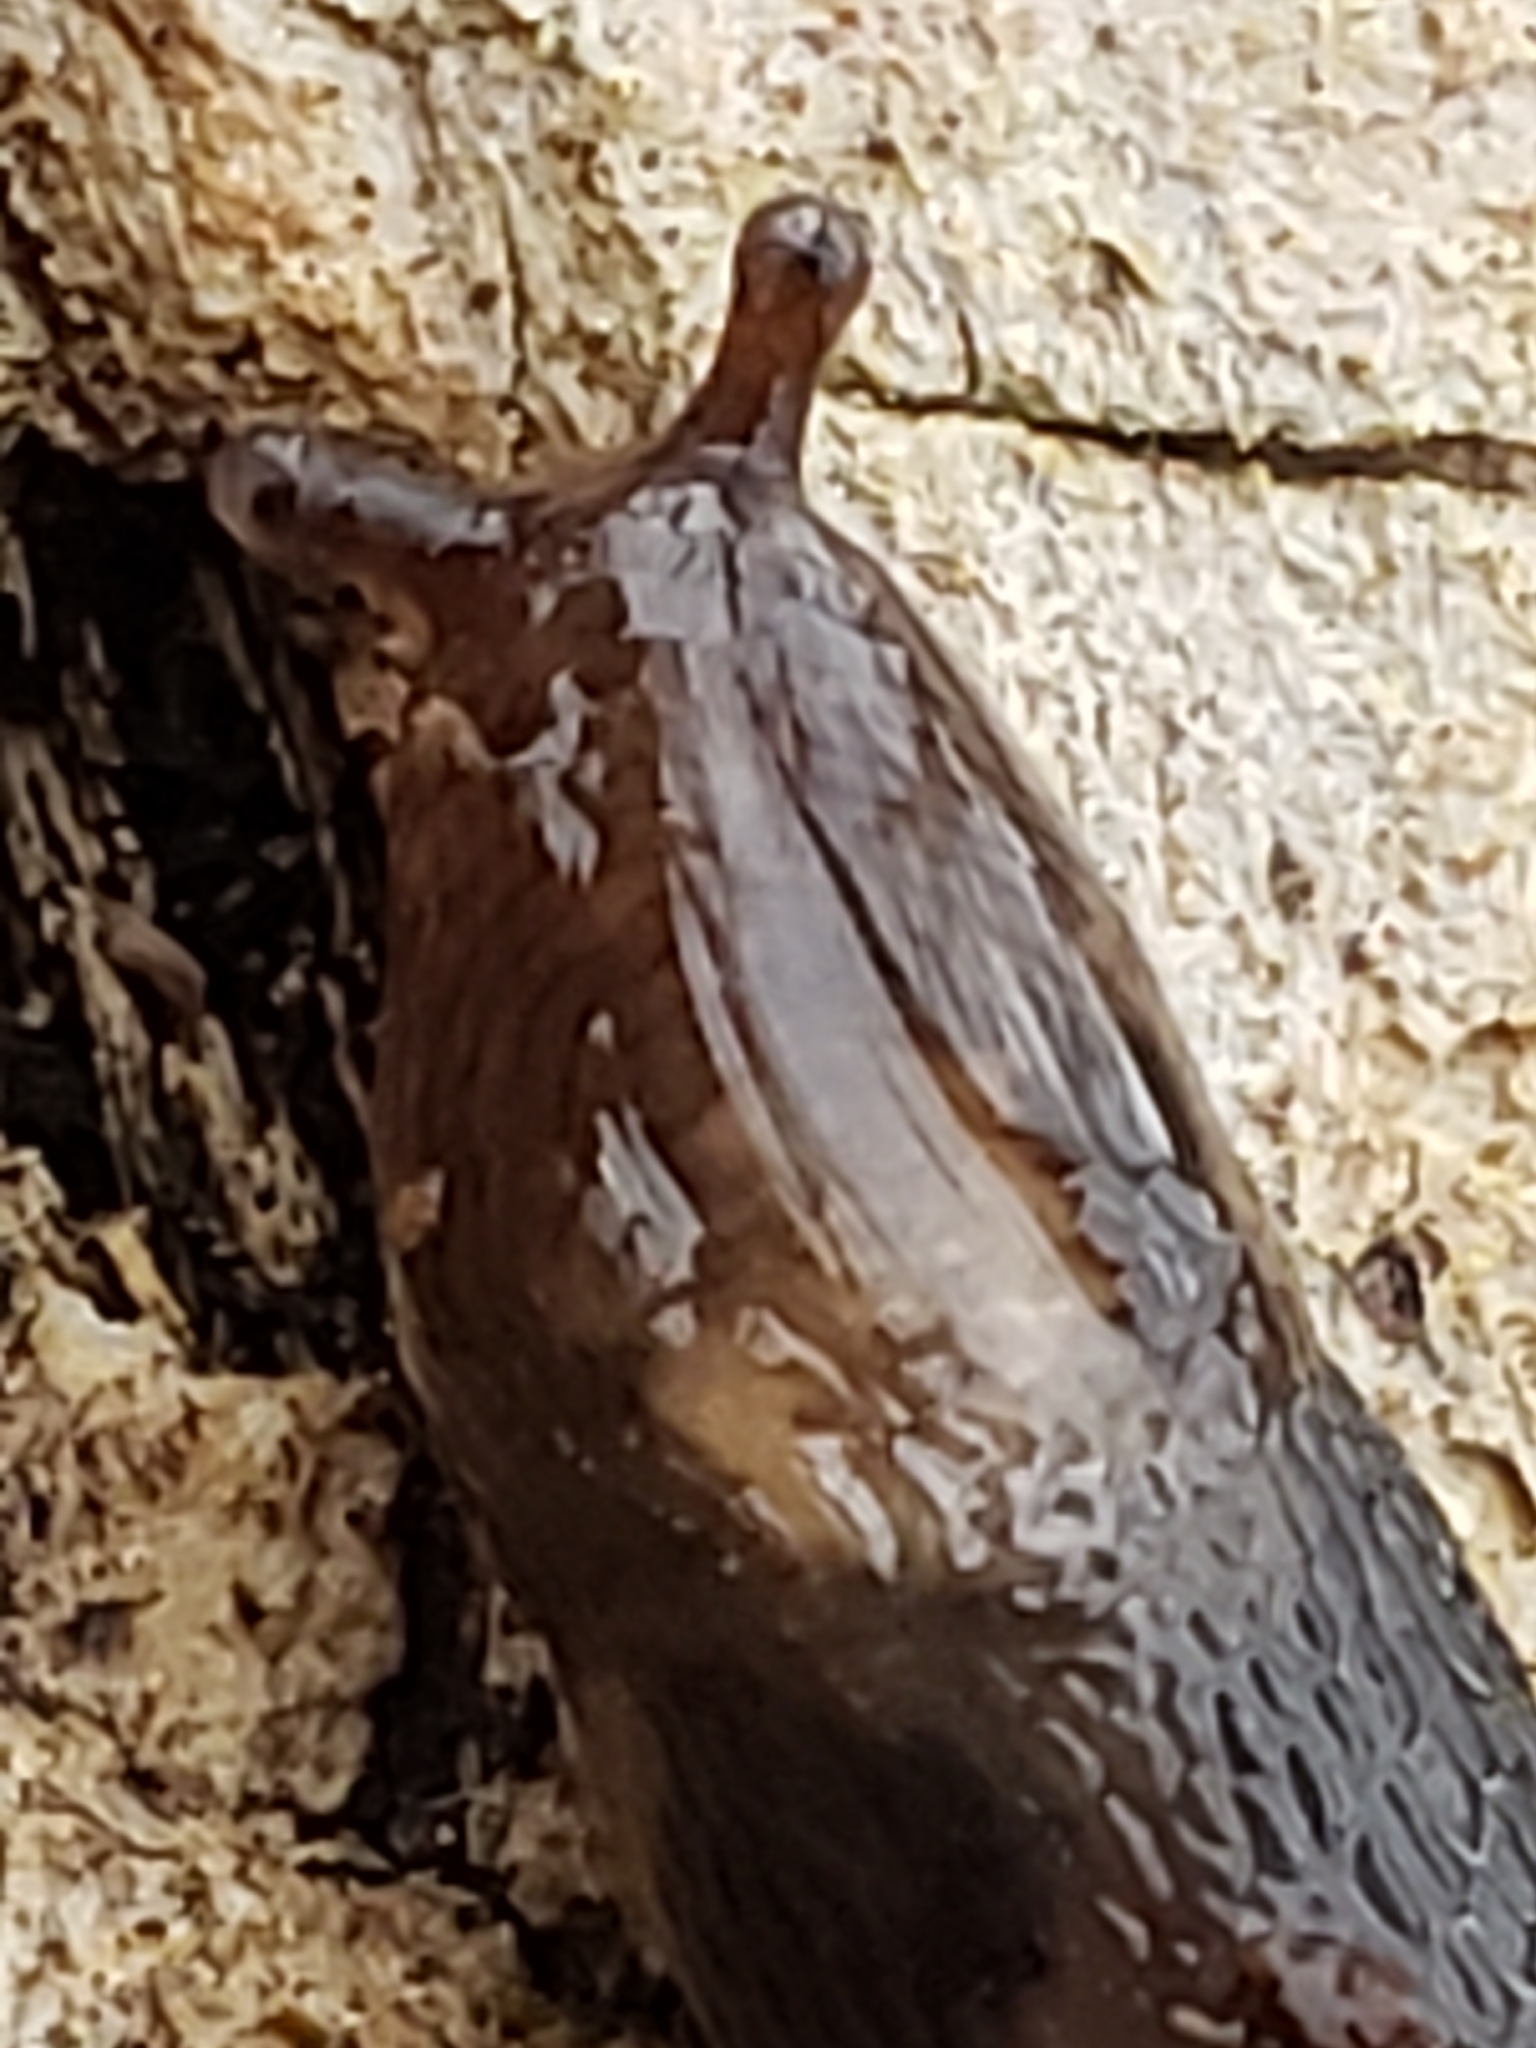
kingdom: Animalia
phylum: Mollusca
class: Gastropoda
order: Stylommatophora
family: Limacidae
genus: Limax
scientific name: Limax maximus
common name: Great grey slug
